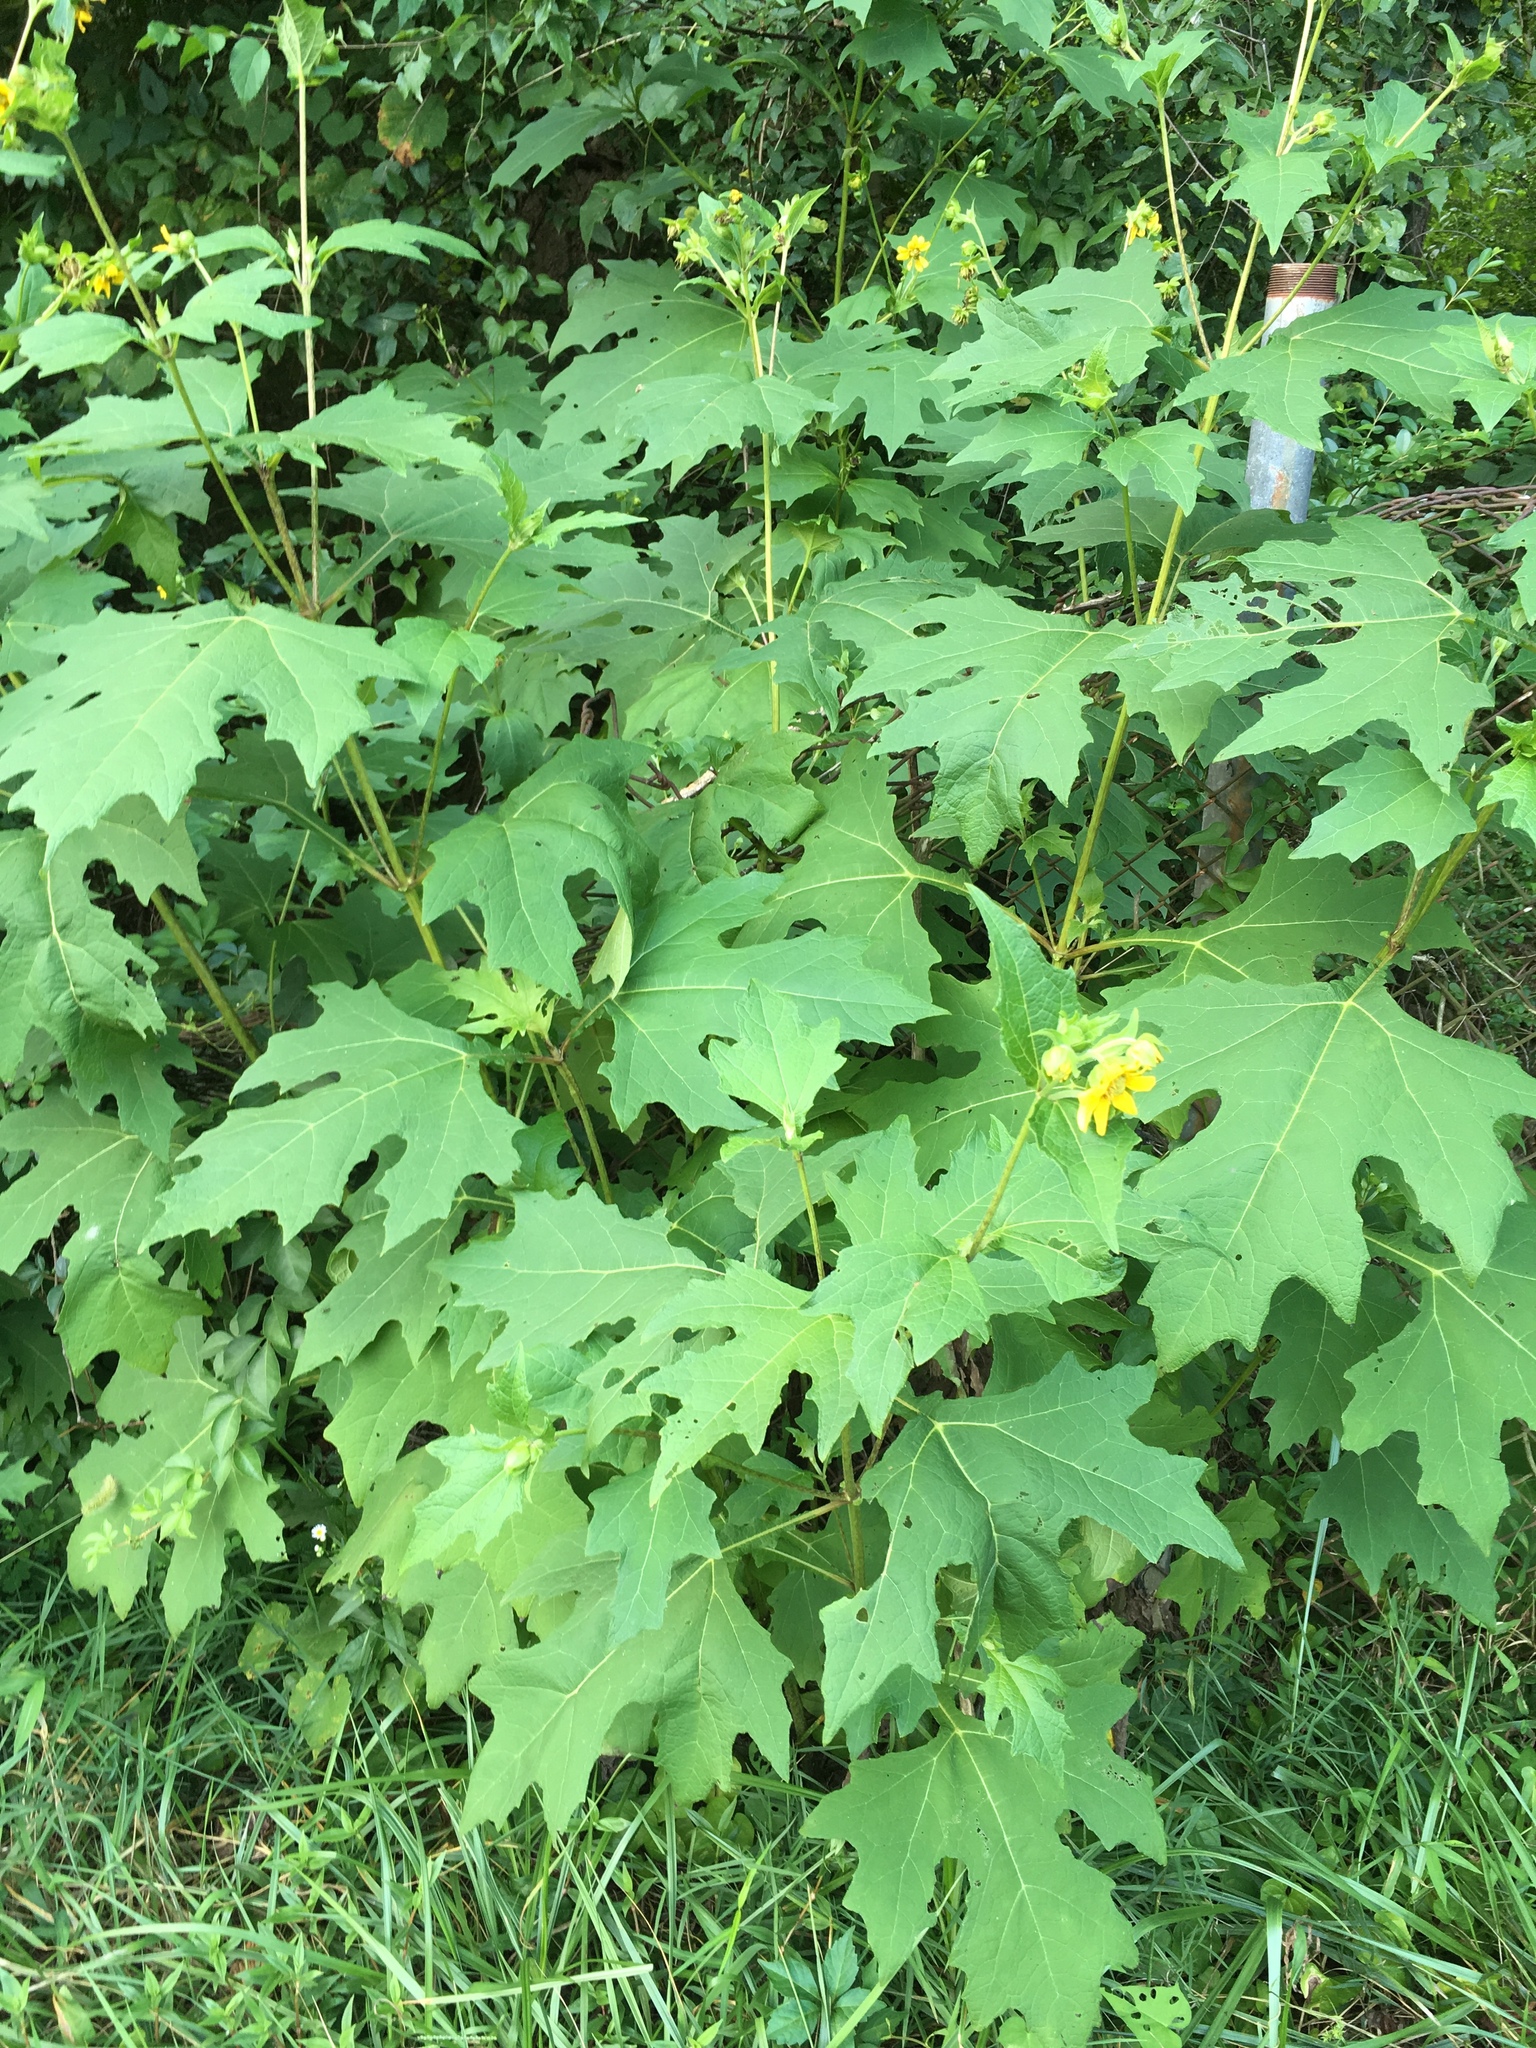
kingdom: Plantae
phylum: Tracheophyta
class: Magnoliopsida
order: Asterales
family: Asteraceae
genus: Smallanthus
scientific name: Smallanthus uvedalia
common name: Bear's-foot
